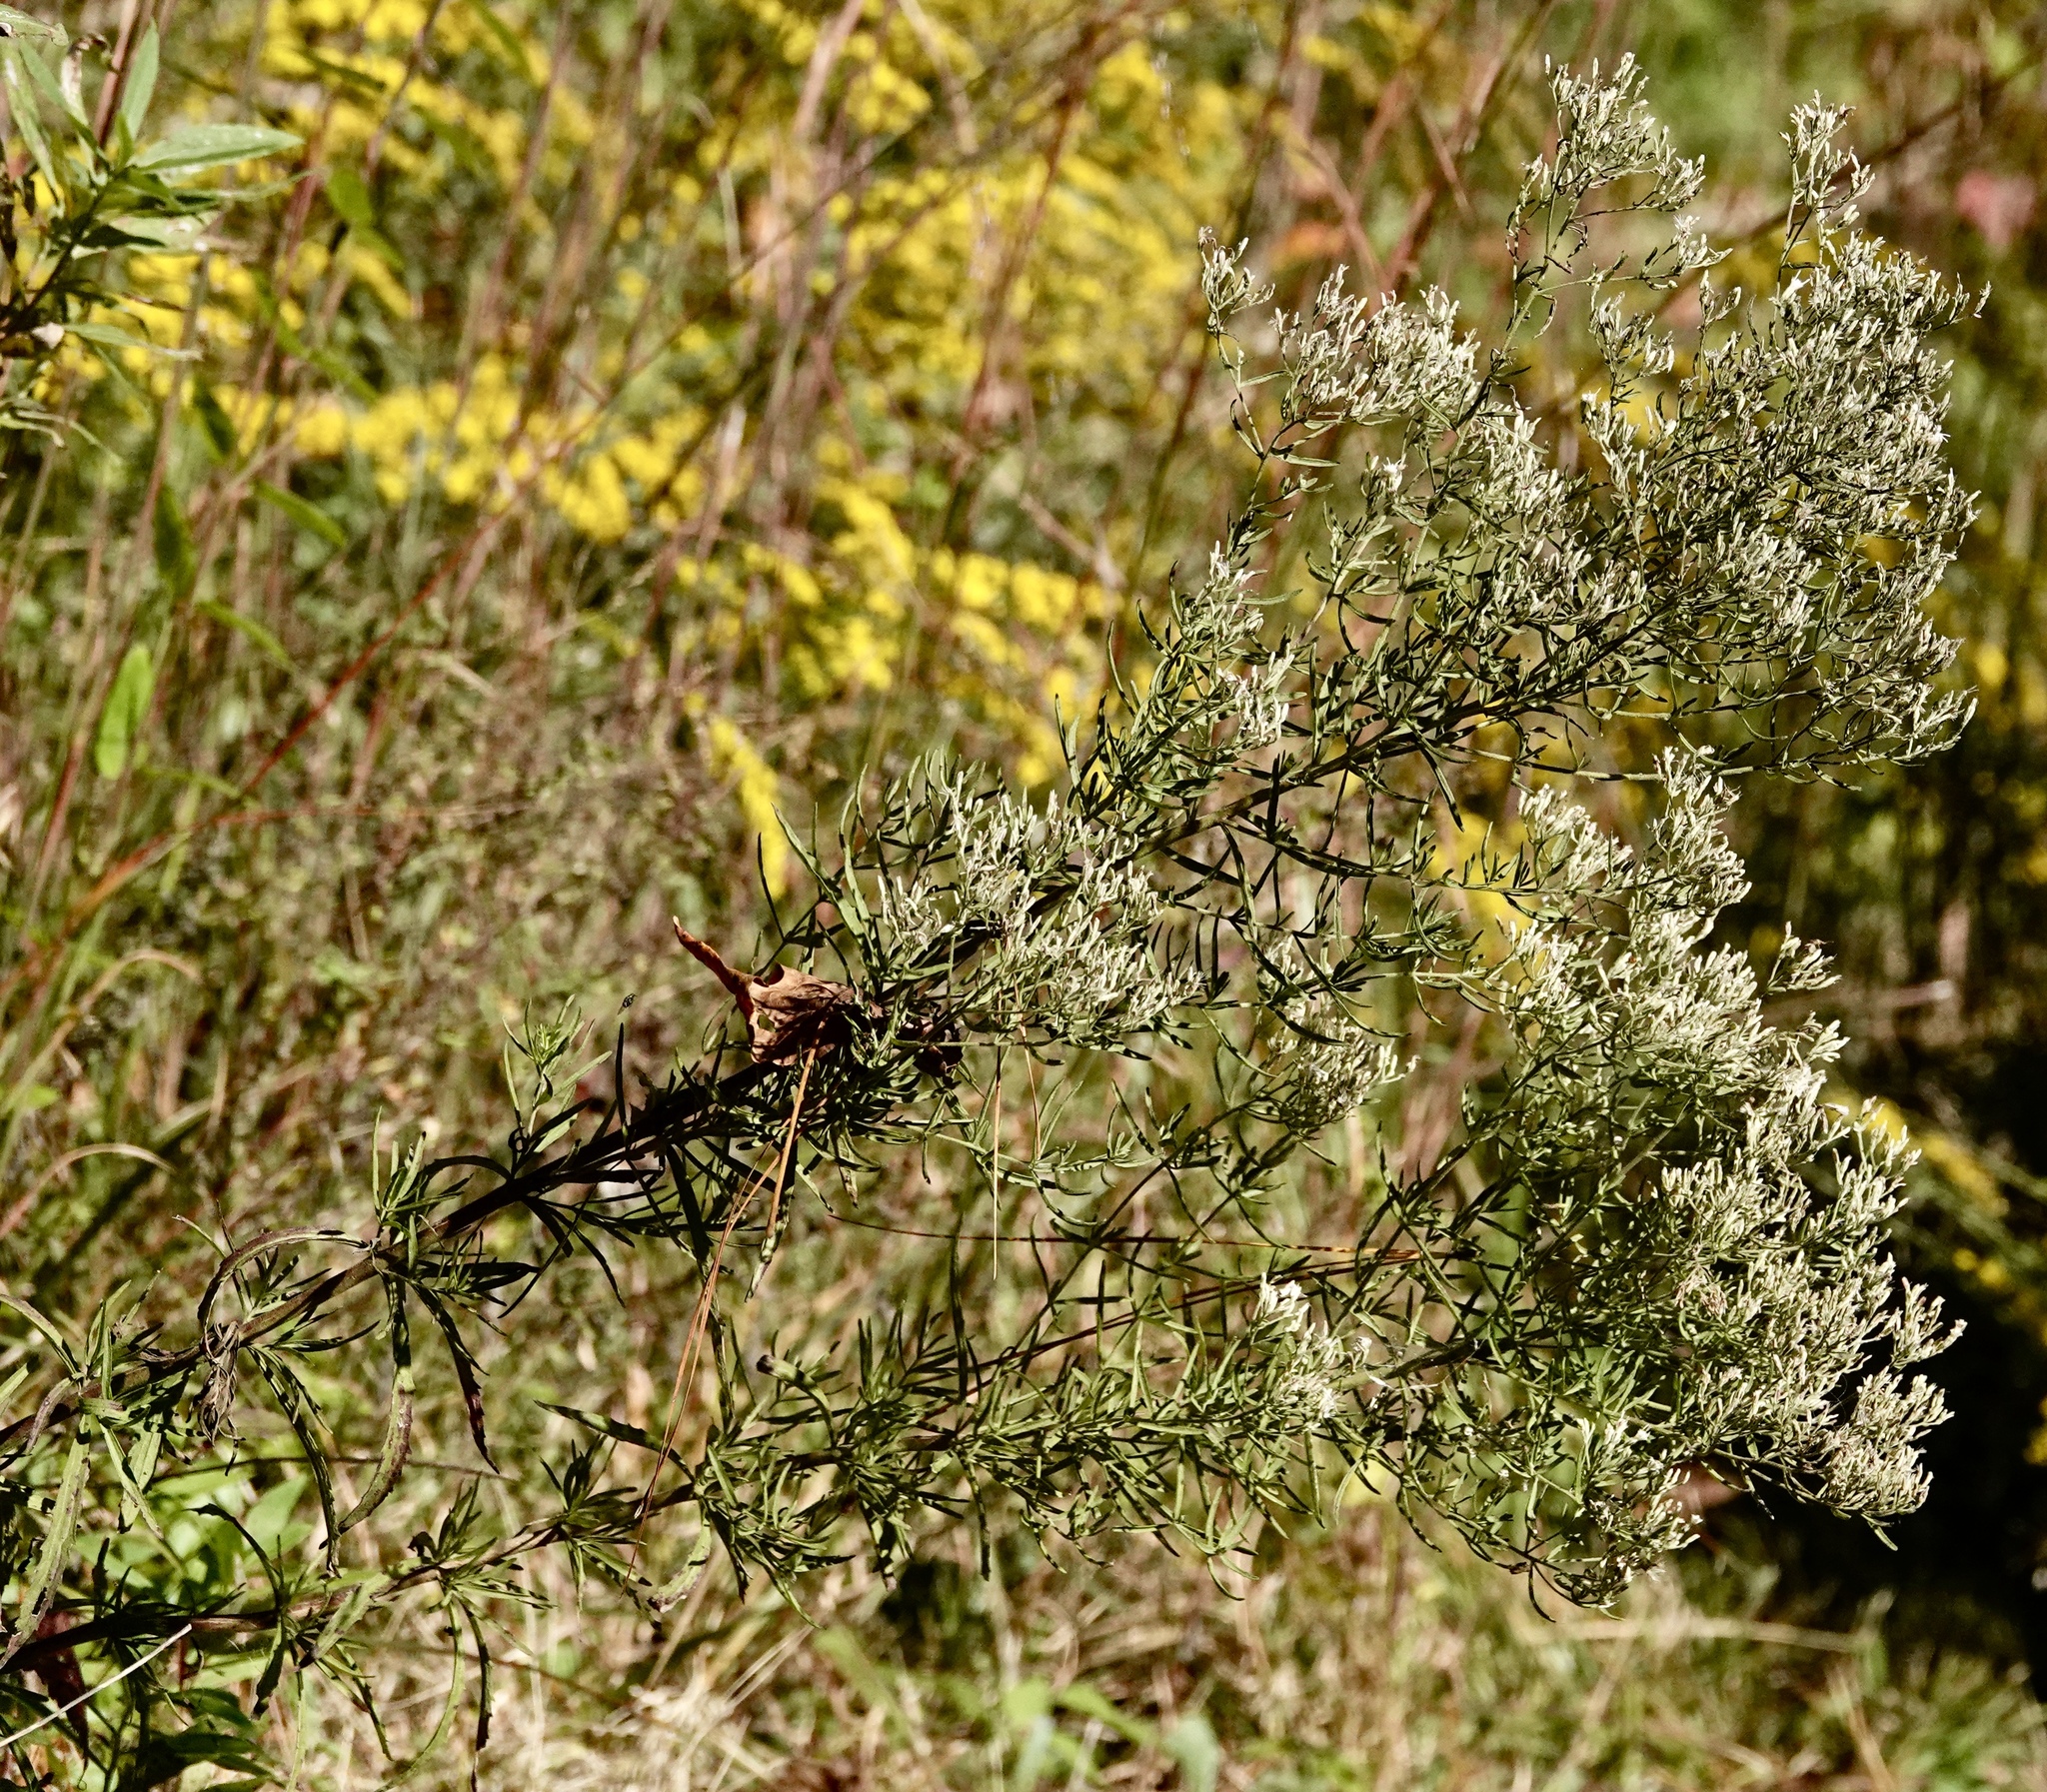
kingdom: Plantae
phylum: Tracheophyta
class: Magnoliopsida
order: Asterales
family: Asteraceae
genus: Eupatorium
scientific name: Eupatorium hyssopifolium
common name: Hyssop-leaf thoroughwort
